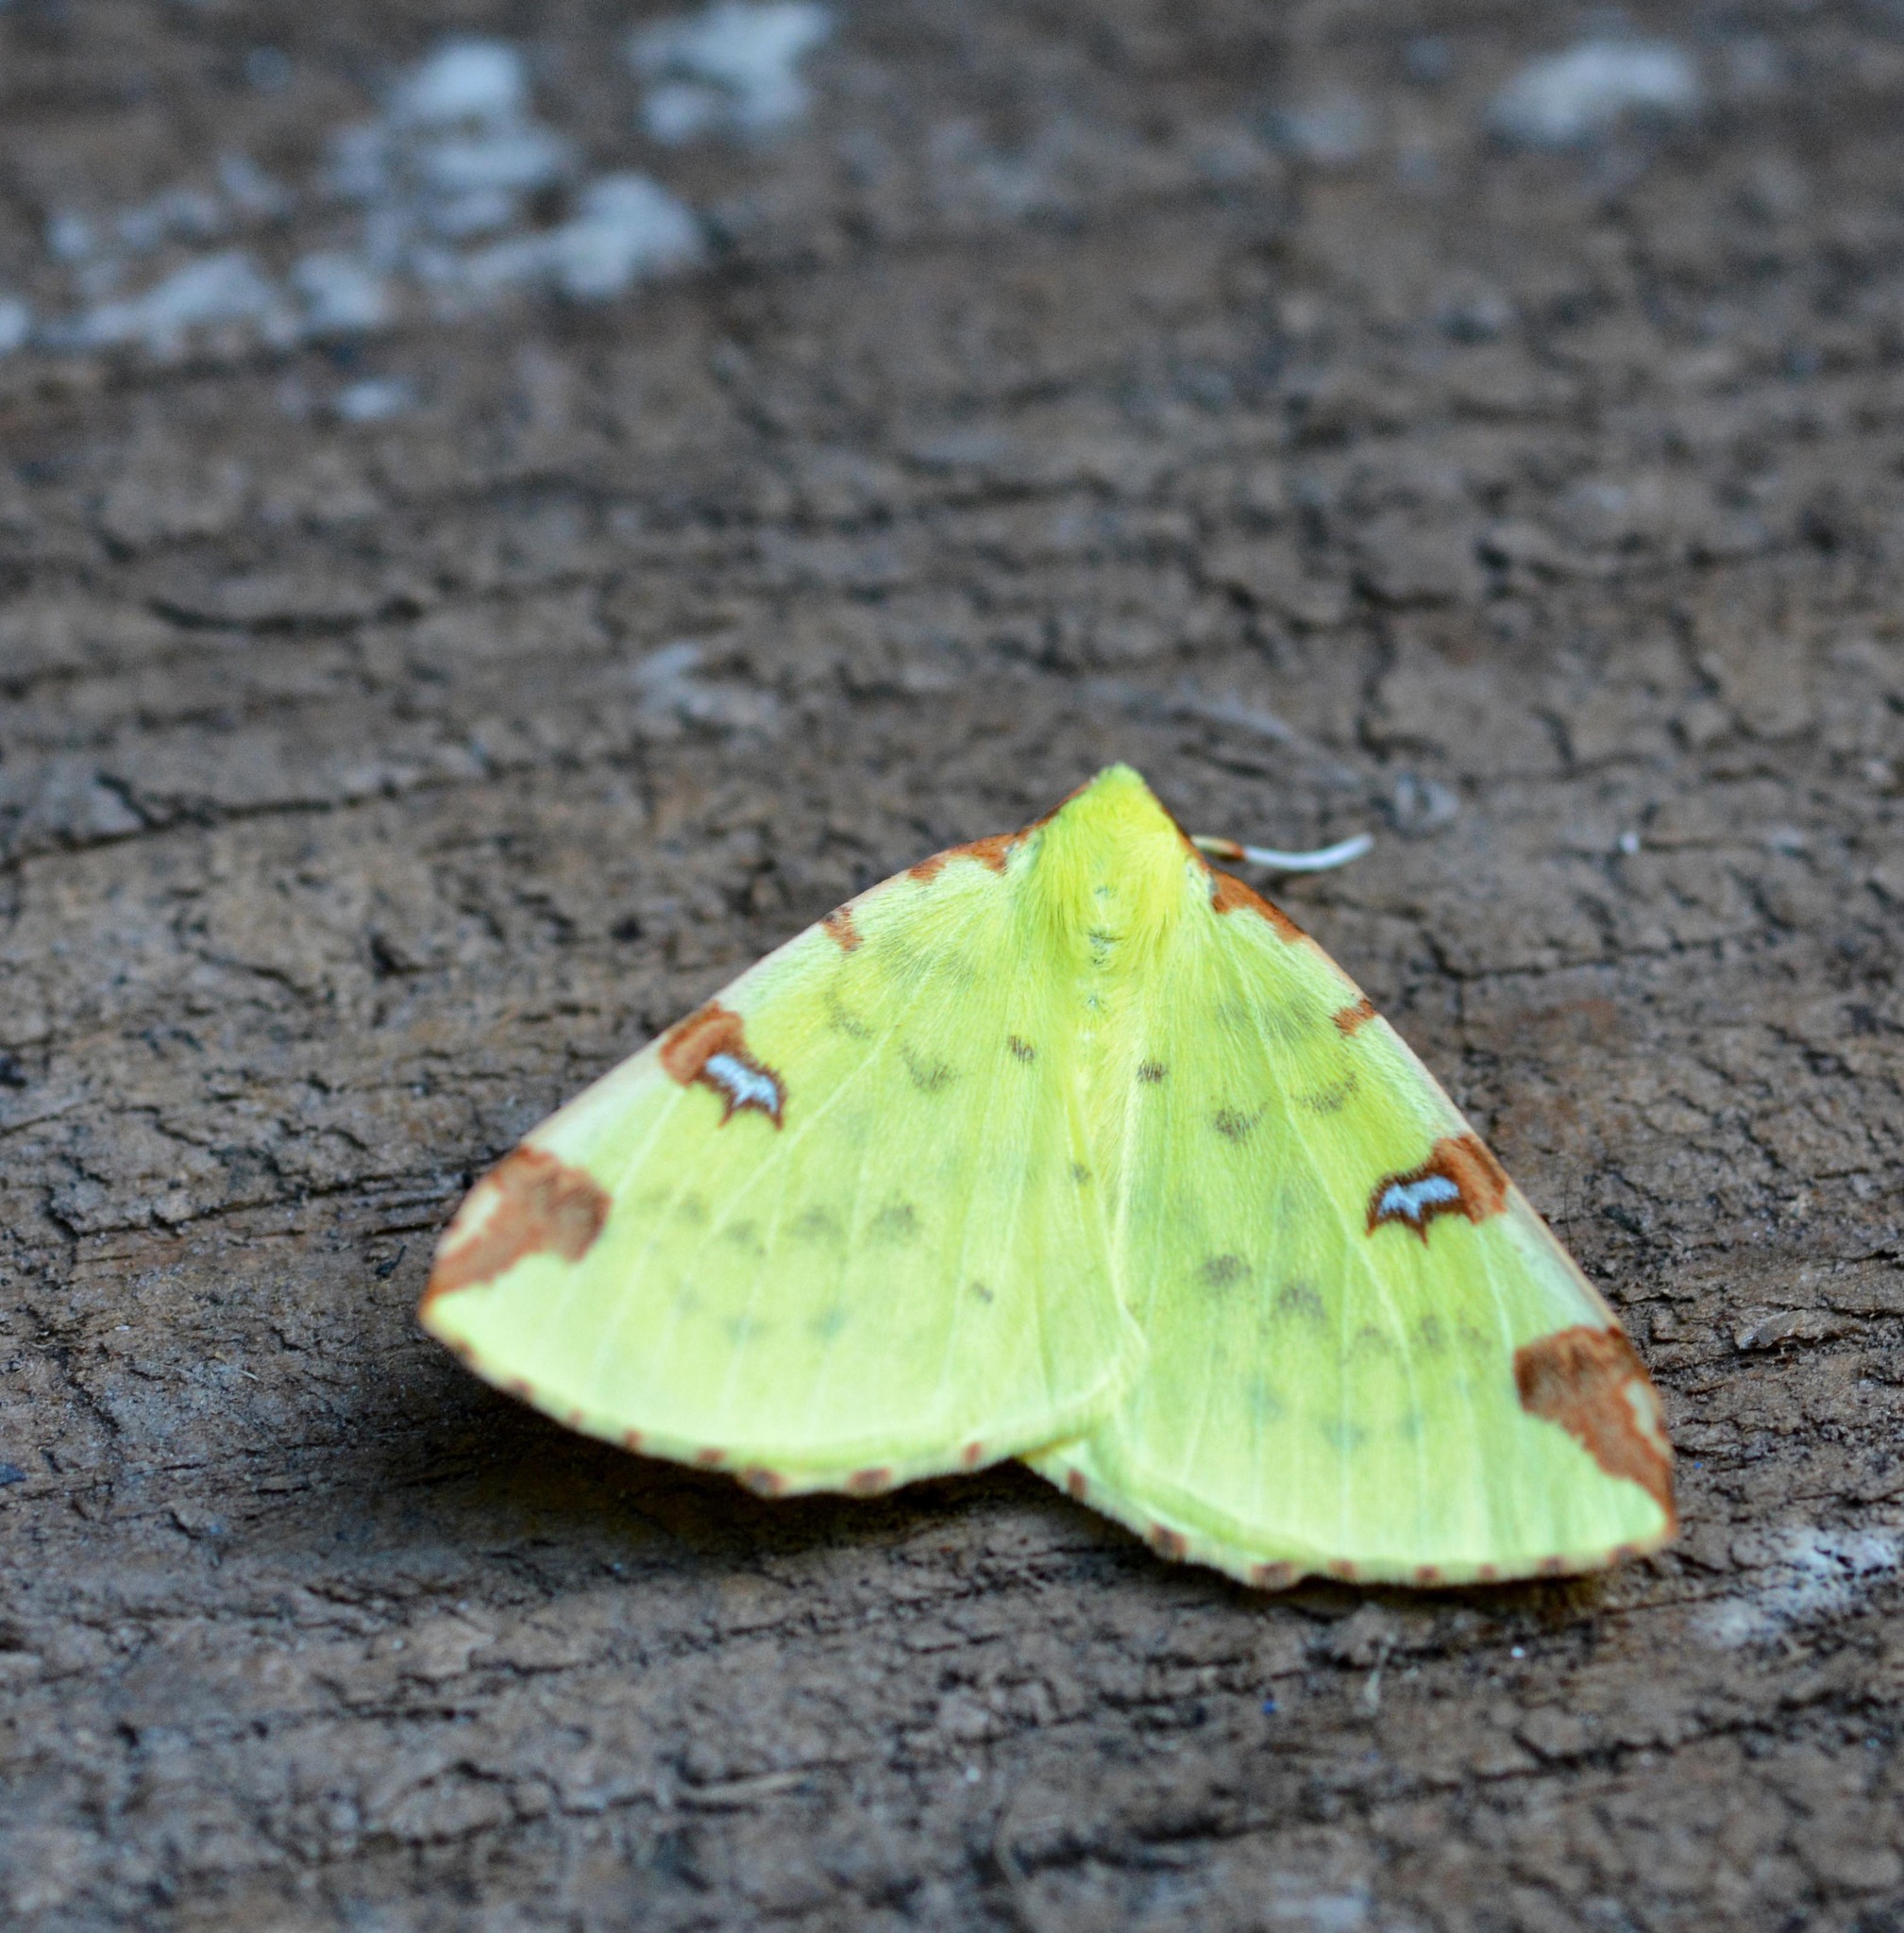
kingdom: Animalia
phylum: Arthropoda
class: Insecta
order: Lepidoptera
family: Geometridae
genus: Opisthograptis
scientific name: Opisthograptis luteolata
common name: Brimstone moth
